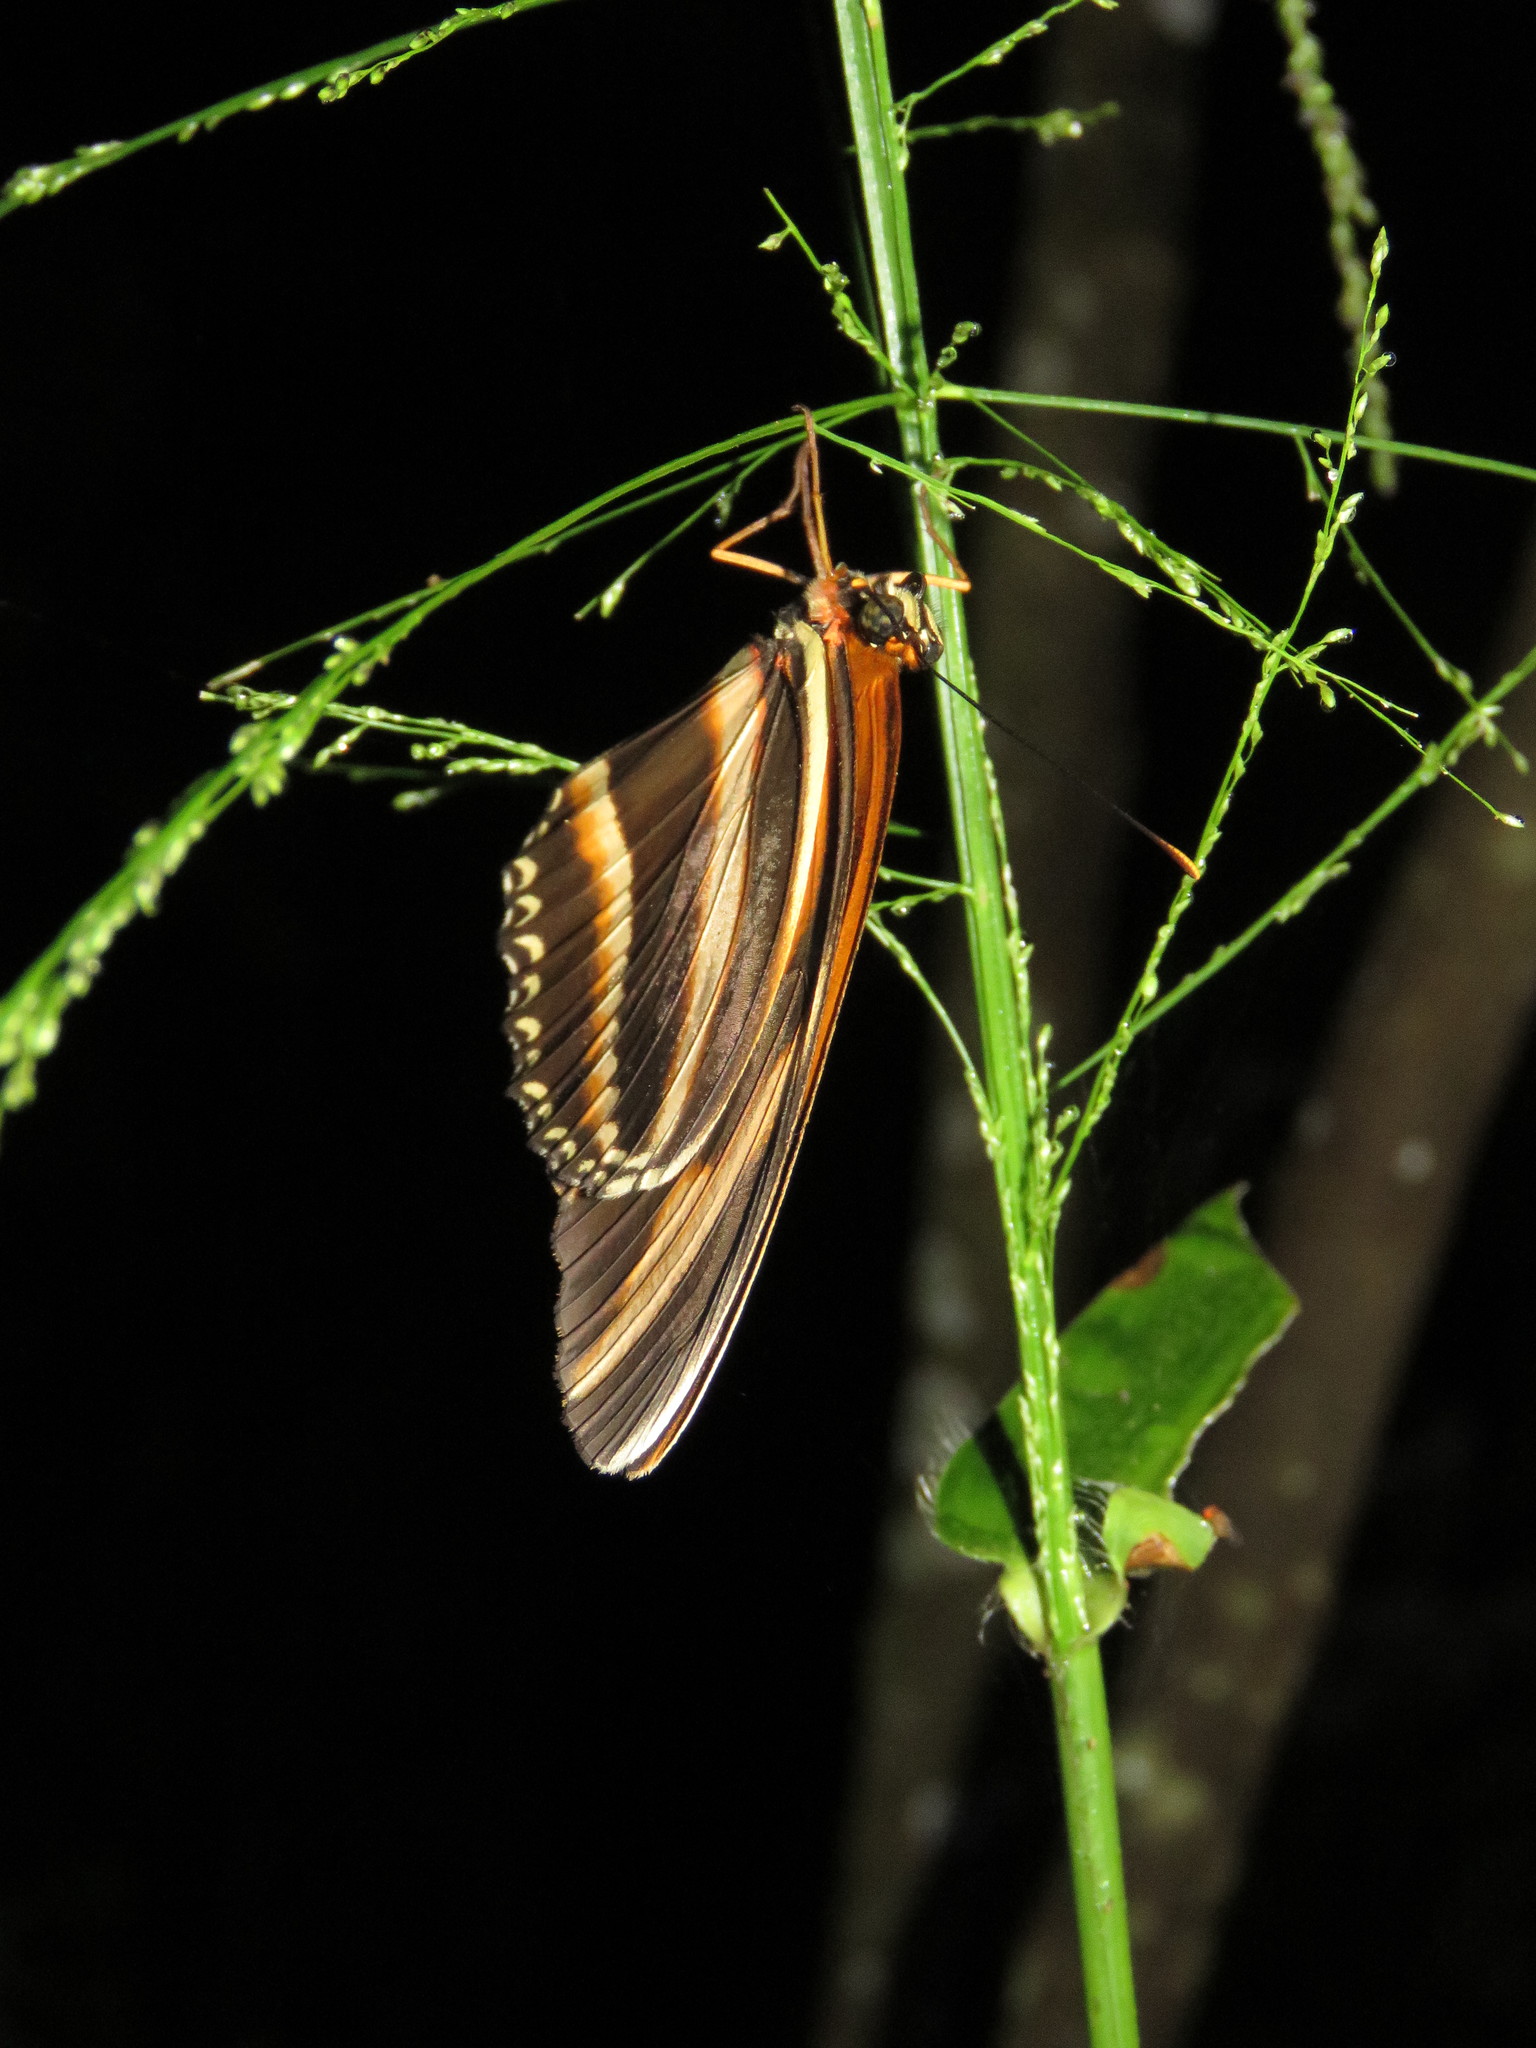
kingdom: Animalia
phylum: Arthropoda
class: Insecta
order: Lepidoptera
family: Nymphalidae
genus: Dryadula
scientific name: Dryadula phaetusa
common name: Banded orange heliconian
